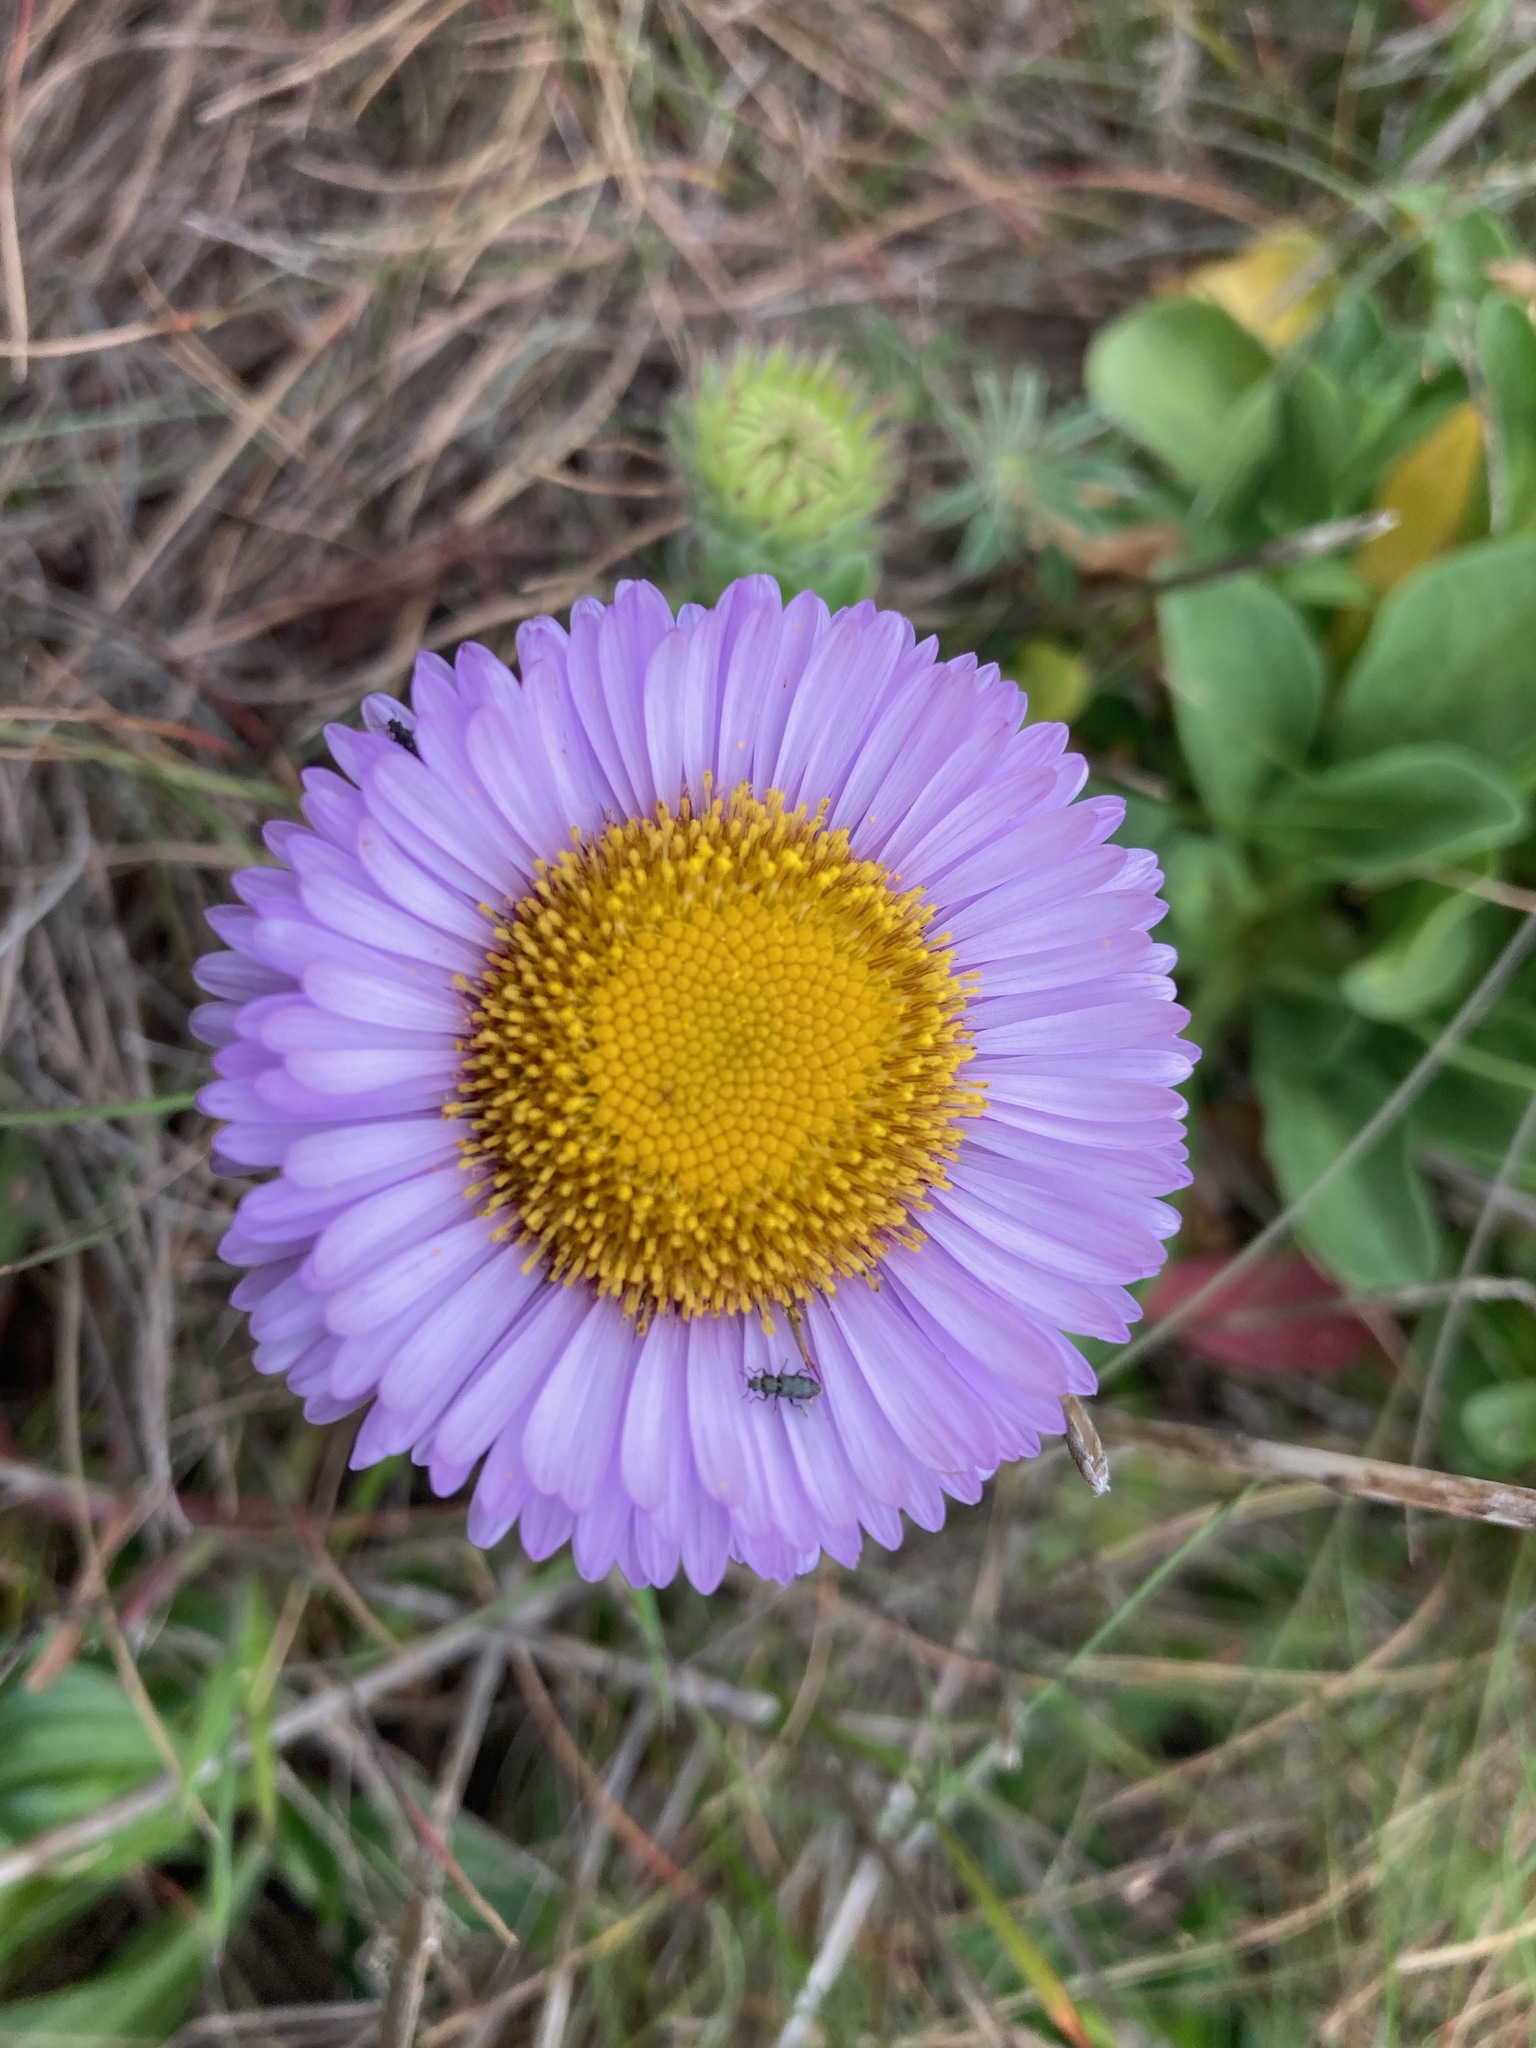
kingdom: Plantae
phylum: Tracheophyta
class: Magnoliopsida
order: Asterales
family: Asteraceae
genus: Erigeron
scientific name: Erigeron glaucus
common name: Seaside daisy
